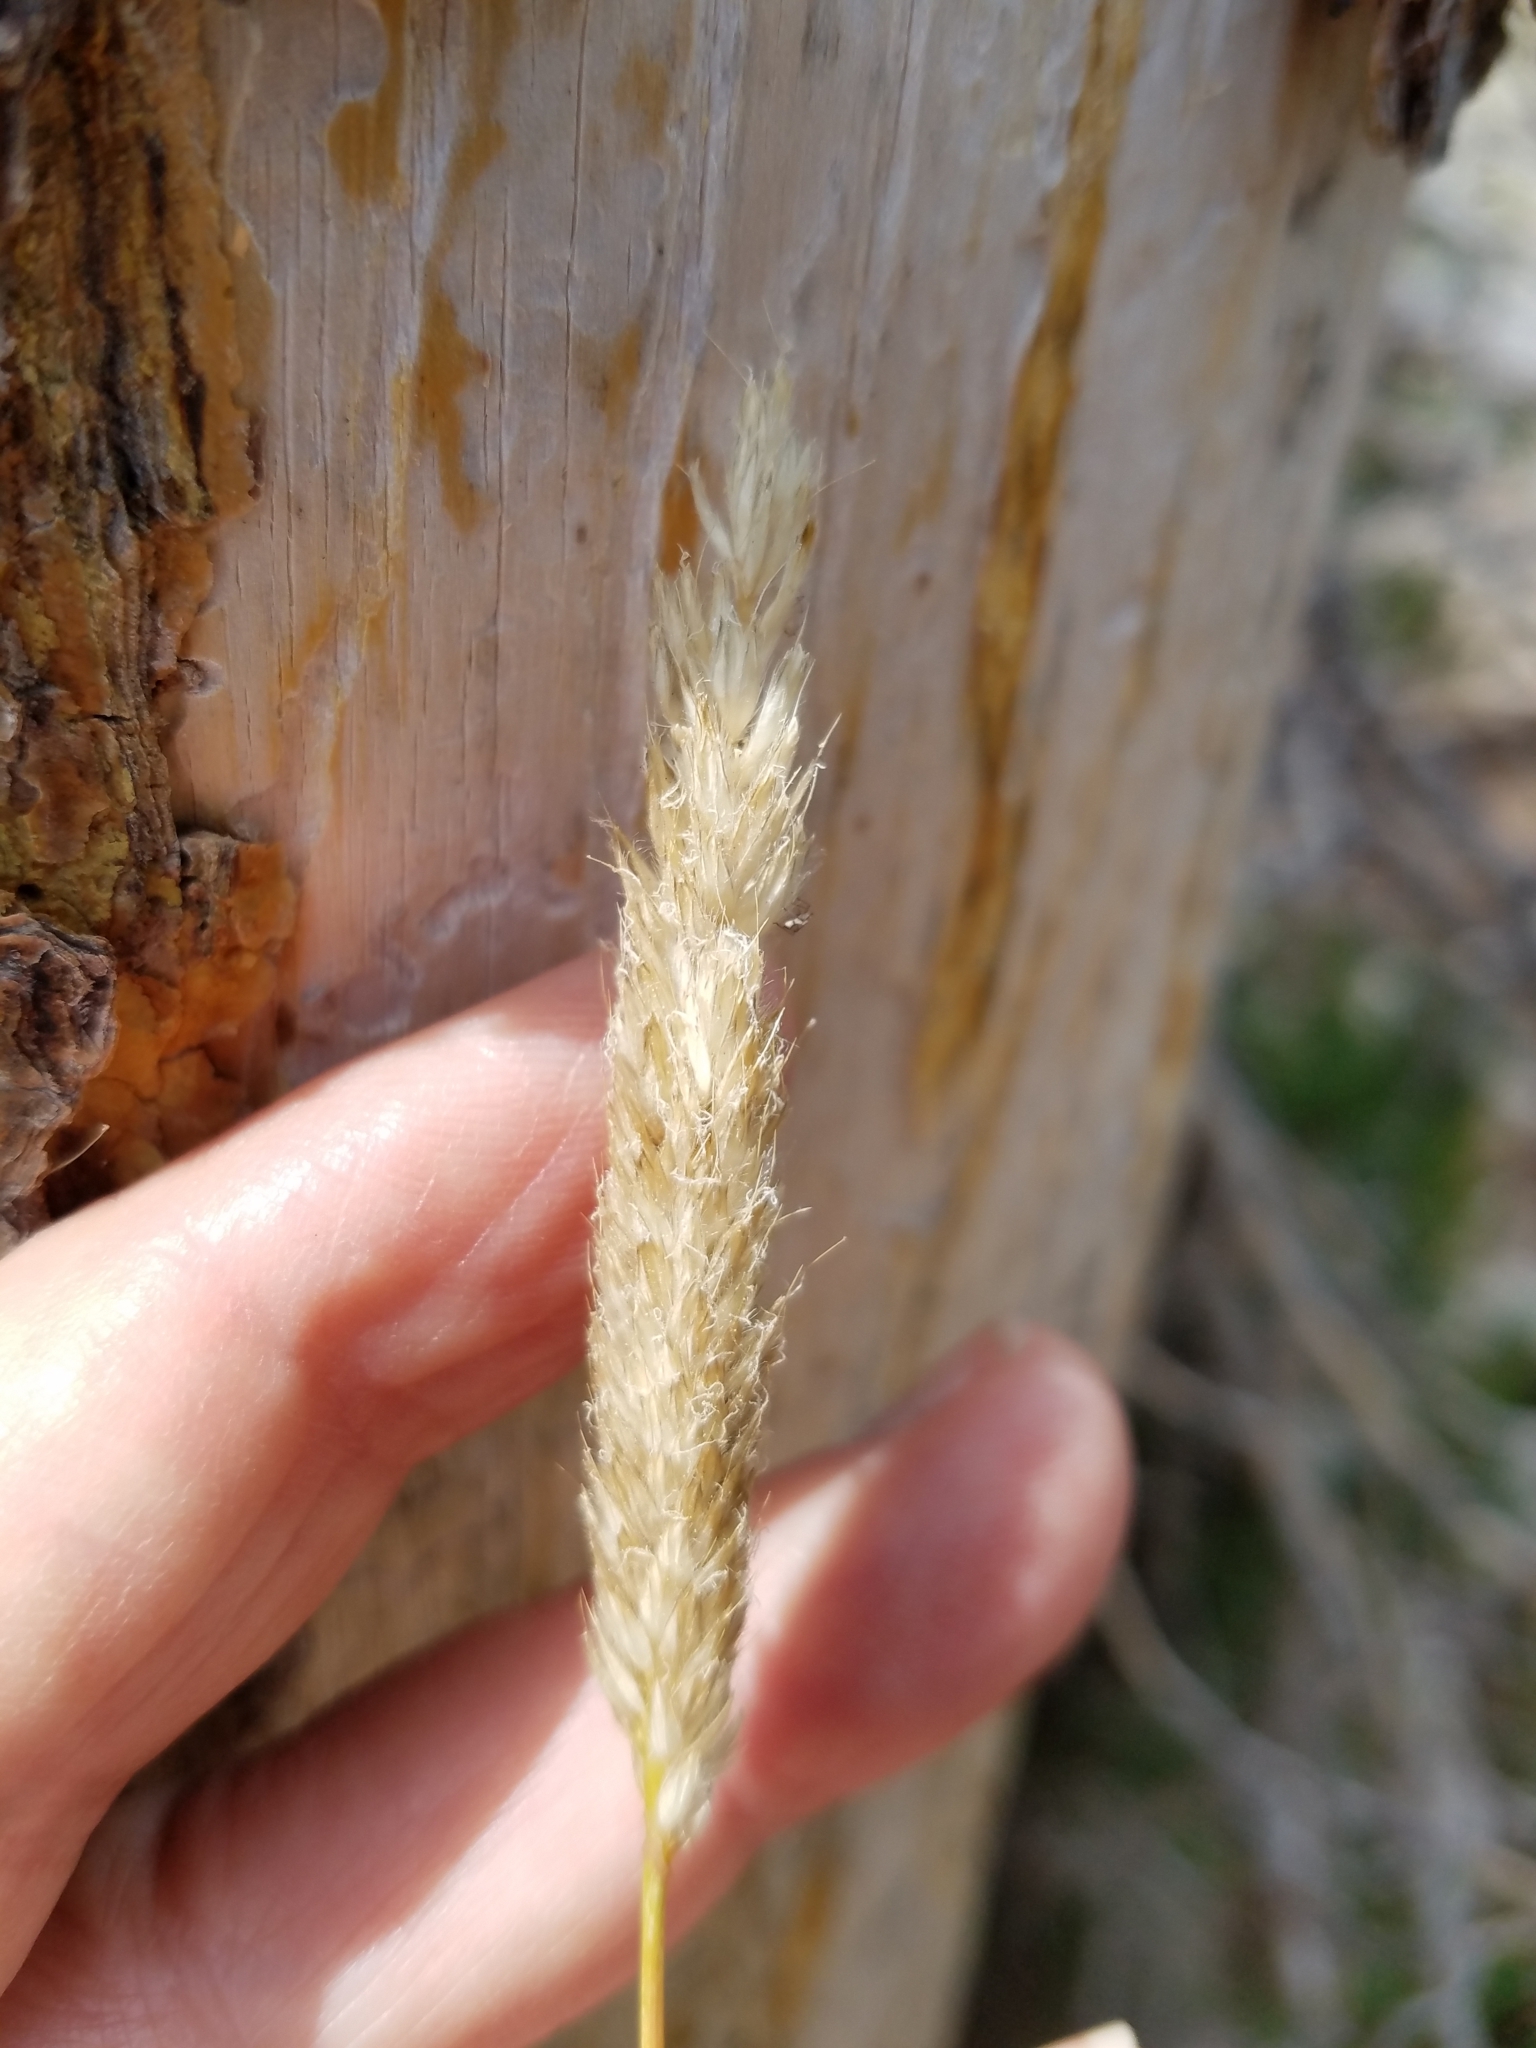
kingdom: Plantae
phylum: Tracheophyta
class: Liliopsida
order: Poales
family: Poaceae
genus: Alopecurus
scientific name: Alopecurus pratensis
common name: Meadow foxtail
